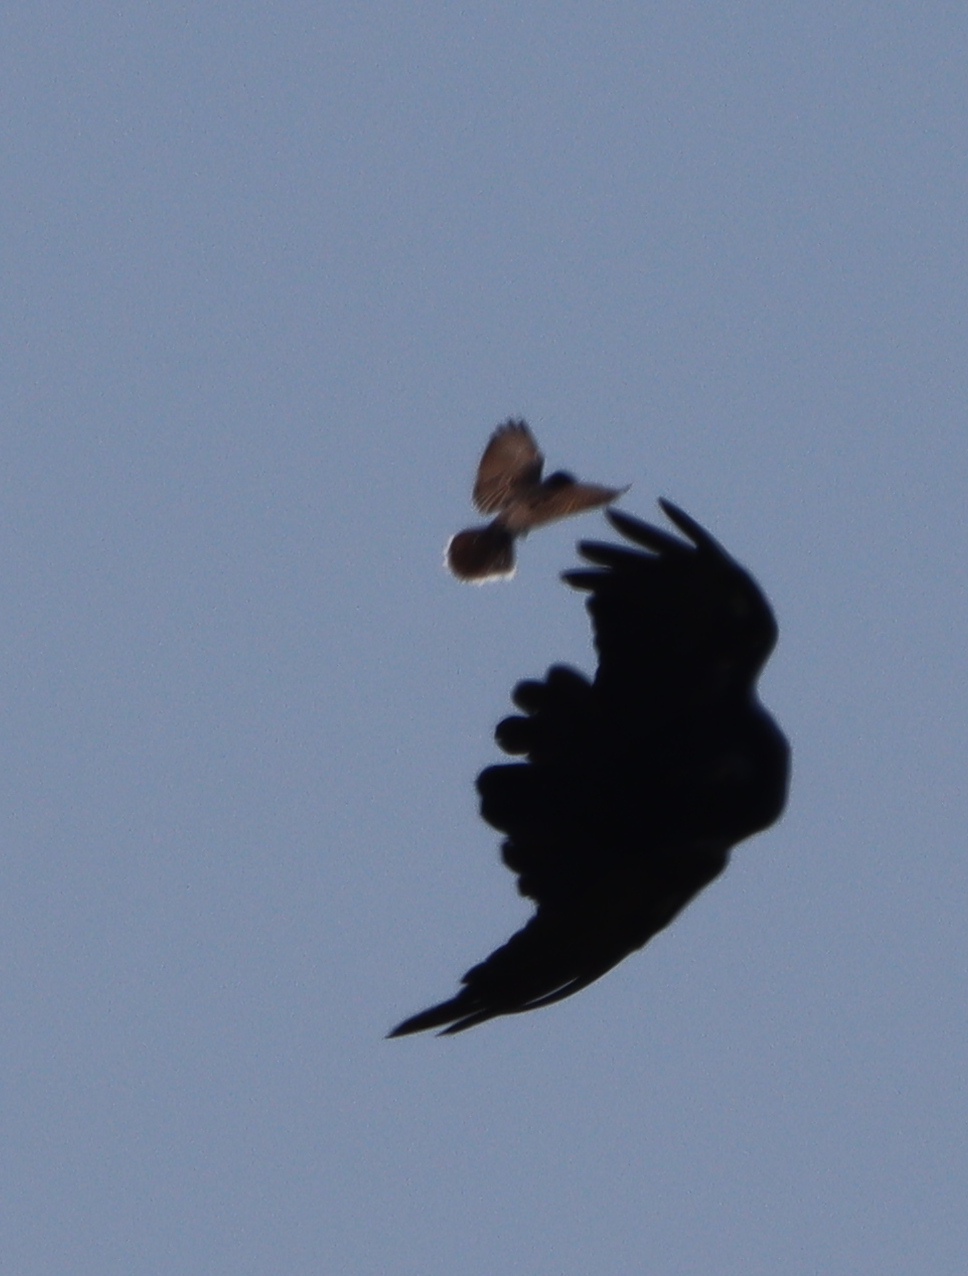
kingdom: Animalia
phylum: Chordata
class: Aves
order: Passeriformes
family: Tyrannidae
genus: Tyrannus
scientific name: Tyrannus tyrannus
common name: Eastern kingbird
